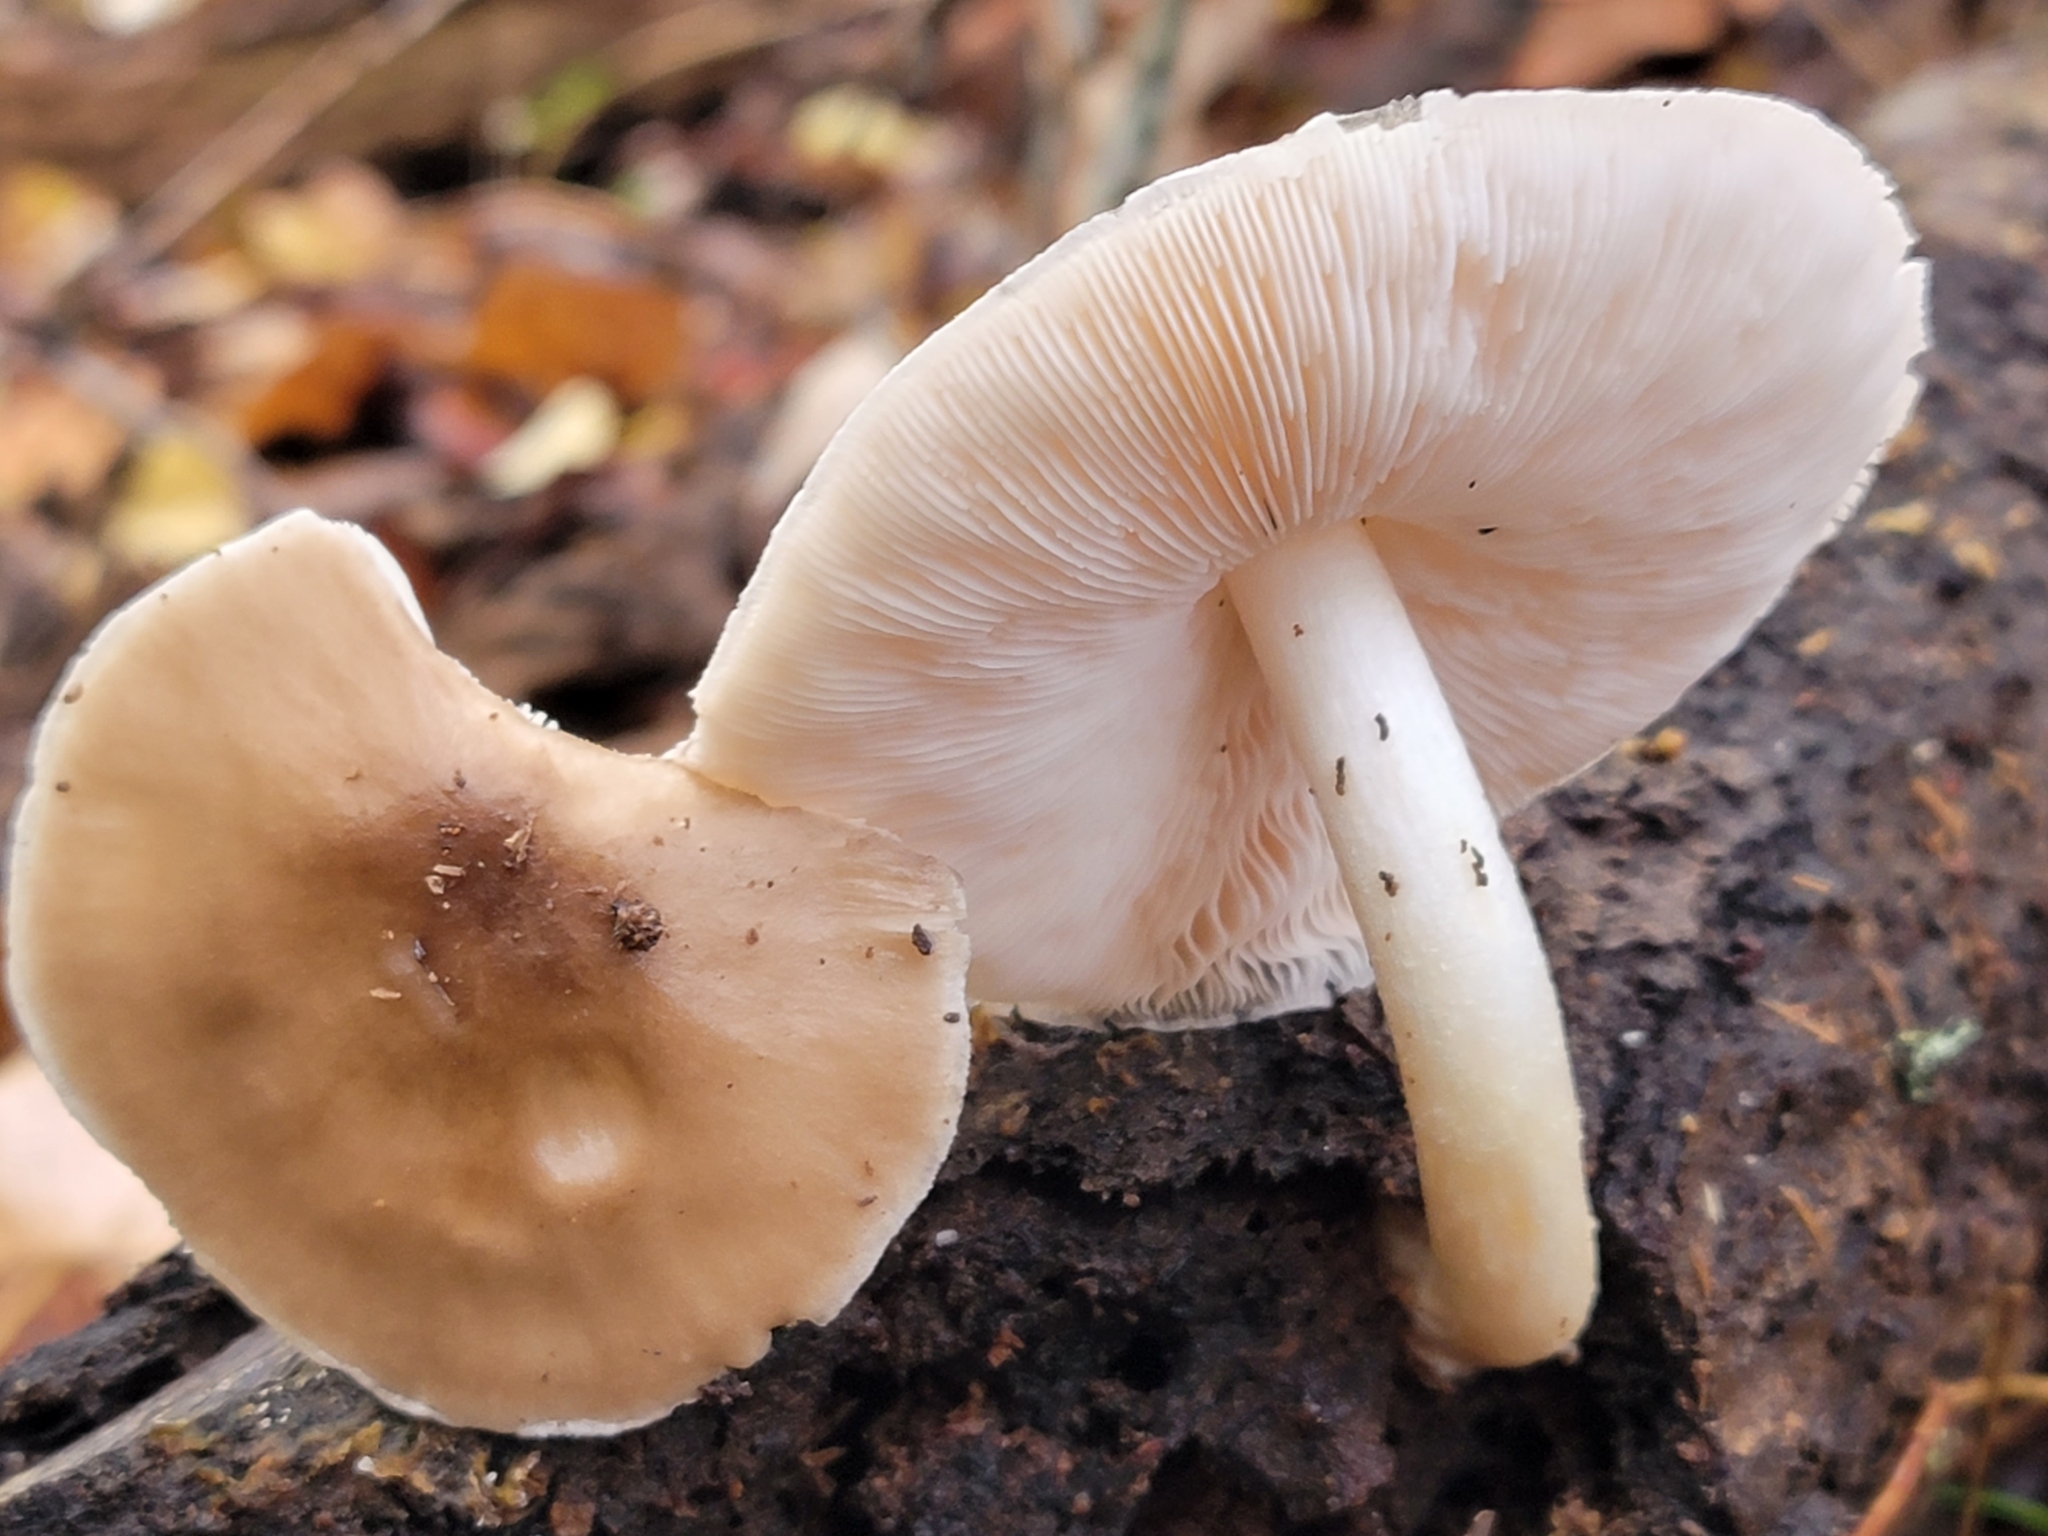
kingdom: Fungi
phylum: Basidiomycota
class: Agaricomycetes
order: Agaricales
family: Pluteaceae
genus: Pluteus
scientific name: Pluteus cervinus
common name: Deer shield
